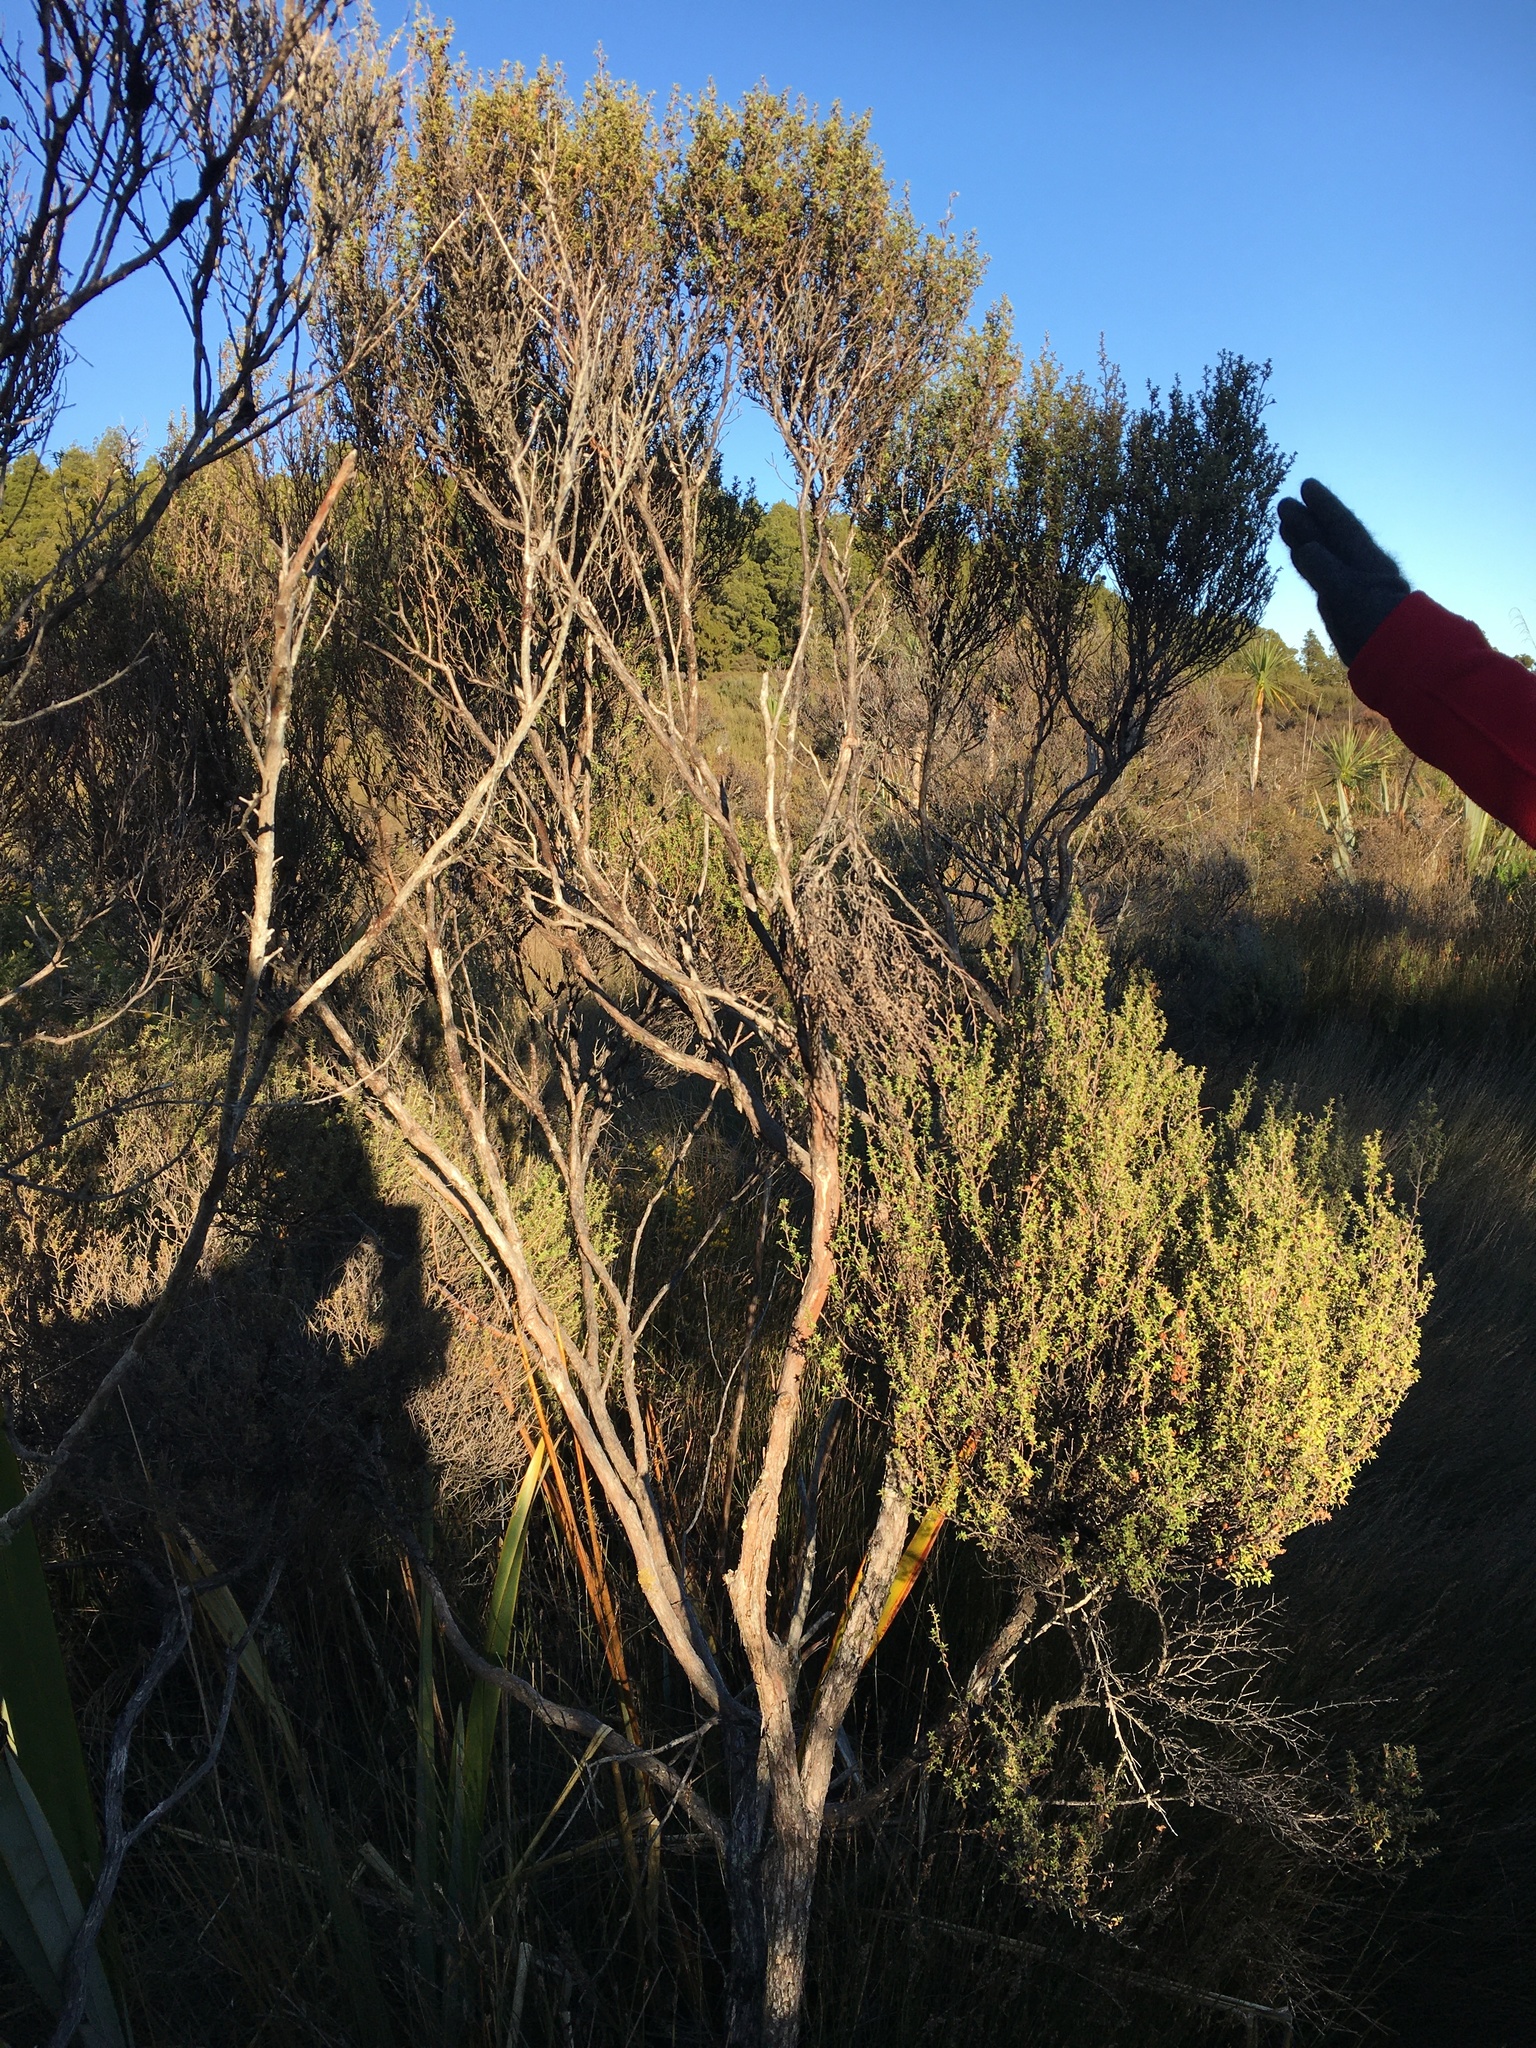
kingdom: Plantae
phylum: Tracheophyta
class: Magnoliopsida
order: Myrtales
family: Myrtaceae
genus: Leptospermum
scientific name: Leptospermum scoparium
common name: Broom tea-tree
